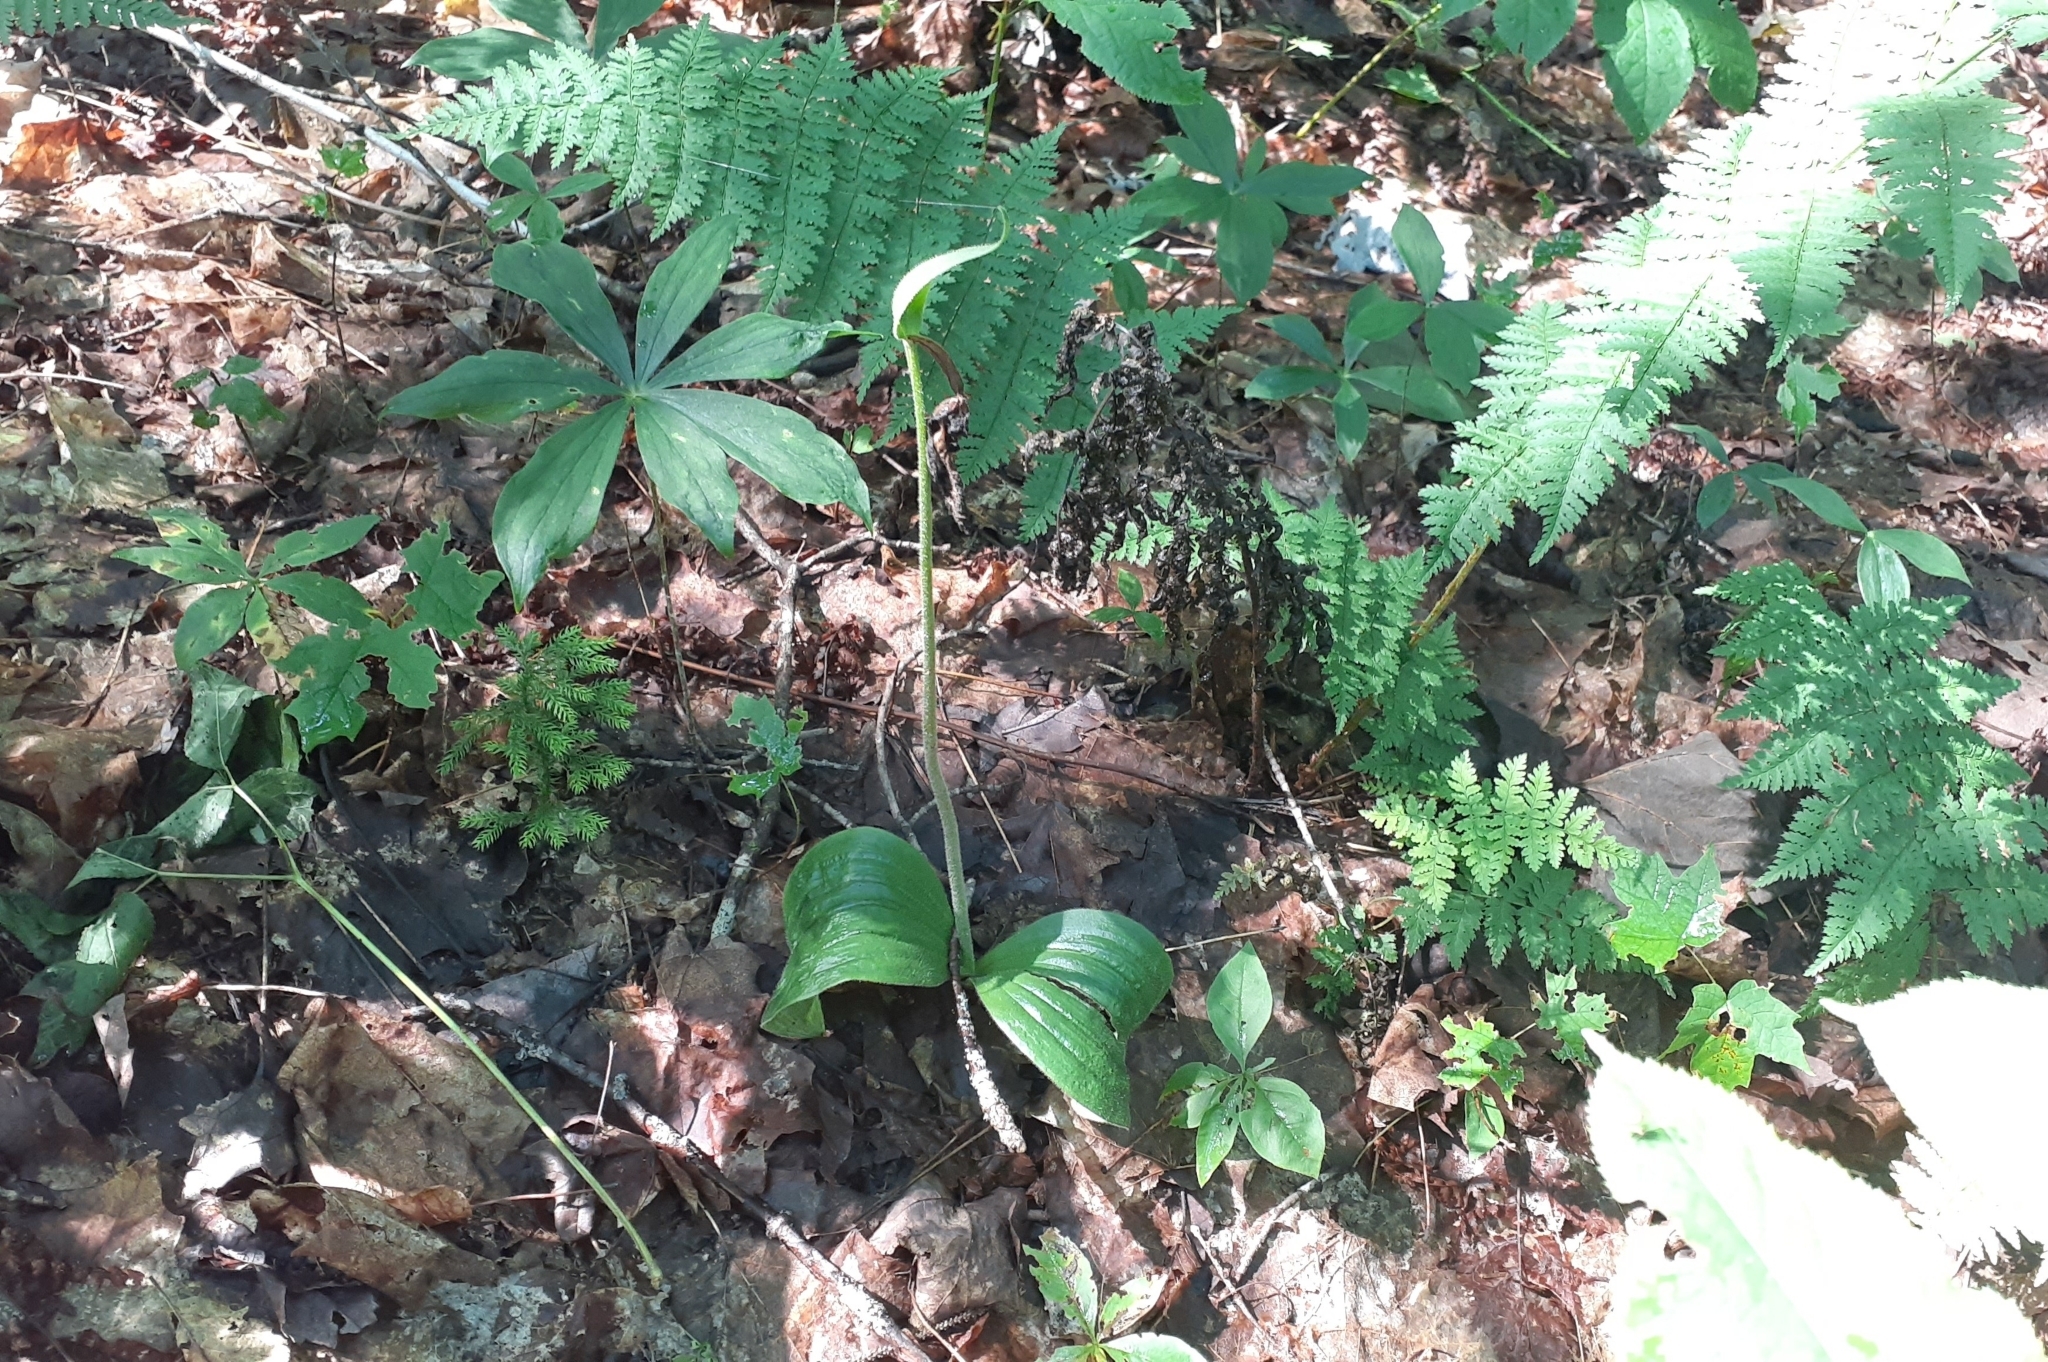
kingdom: Plantae
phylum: Tracheophyta
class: Liliopsida
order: Asparagales
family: Orchidaceae
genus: Cypripedium
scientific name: Cypripedium acaule
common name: Pink lady's-slipper
